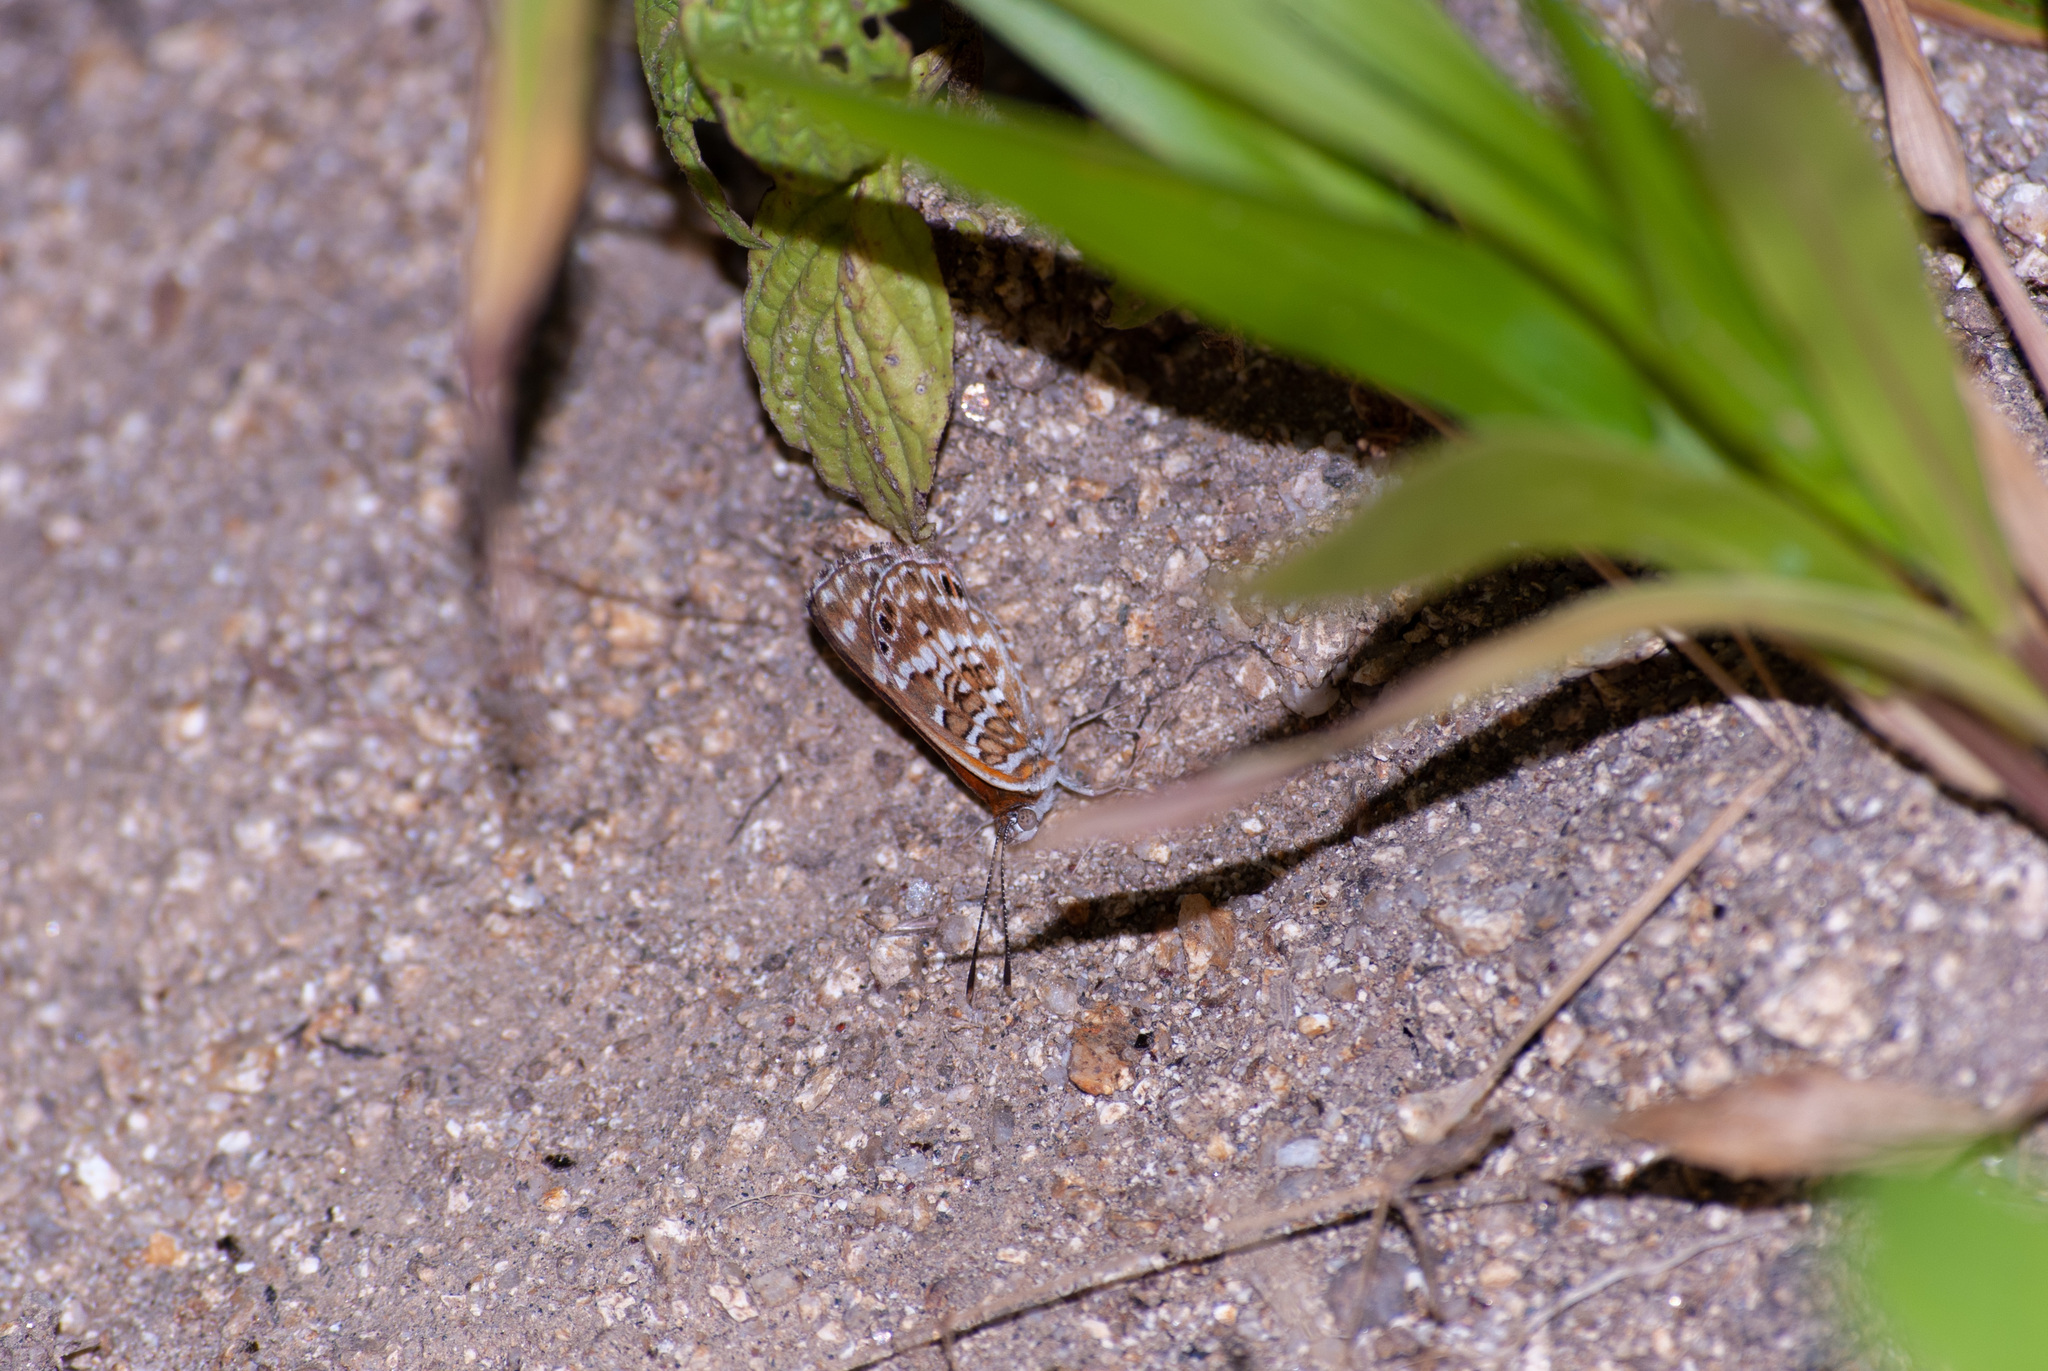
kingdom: Animalia
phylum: Arthropoda
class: Insecta
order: Lepidoptera
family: Lycaenidae
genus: Aricoris
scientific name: Aricoris erostratus
